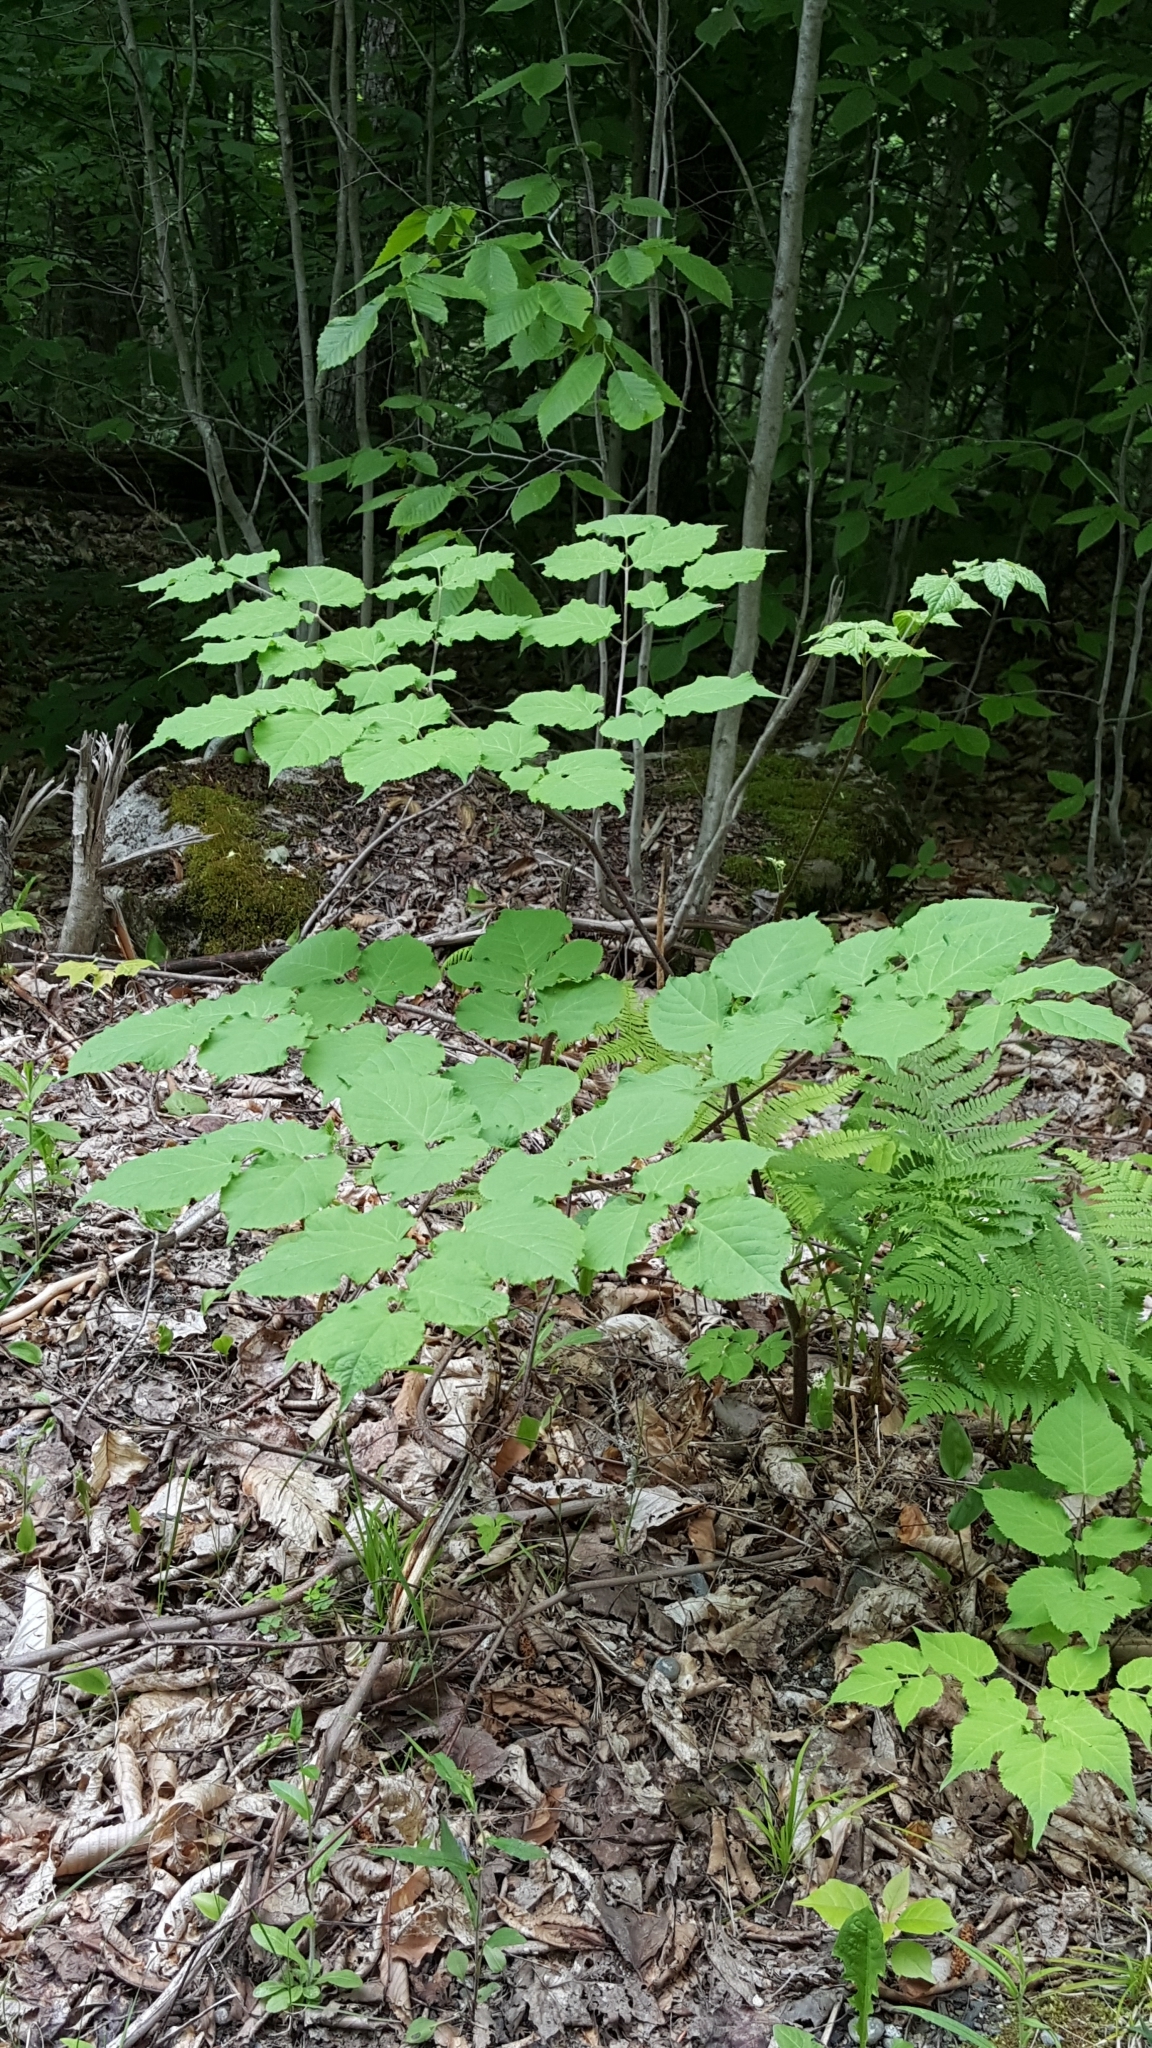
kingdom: Plantae
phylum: Tracheophyta
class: Magnoliopsida
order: Apiales
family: Araliaceae
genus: Aralia
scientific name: Aralia racemosa
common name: American-spikenard
